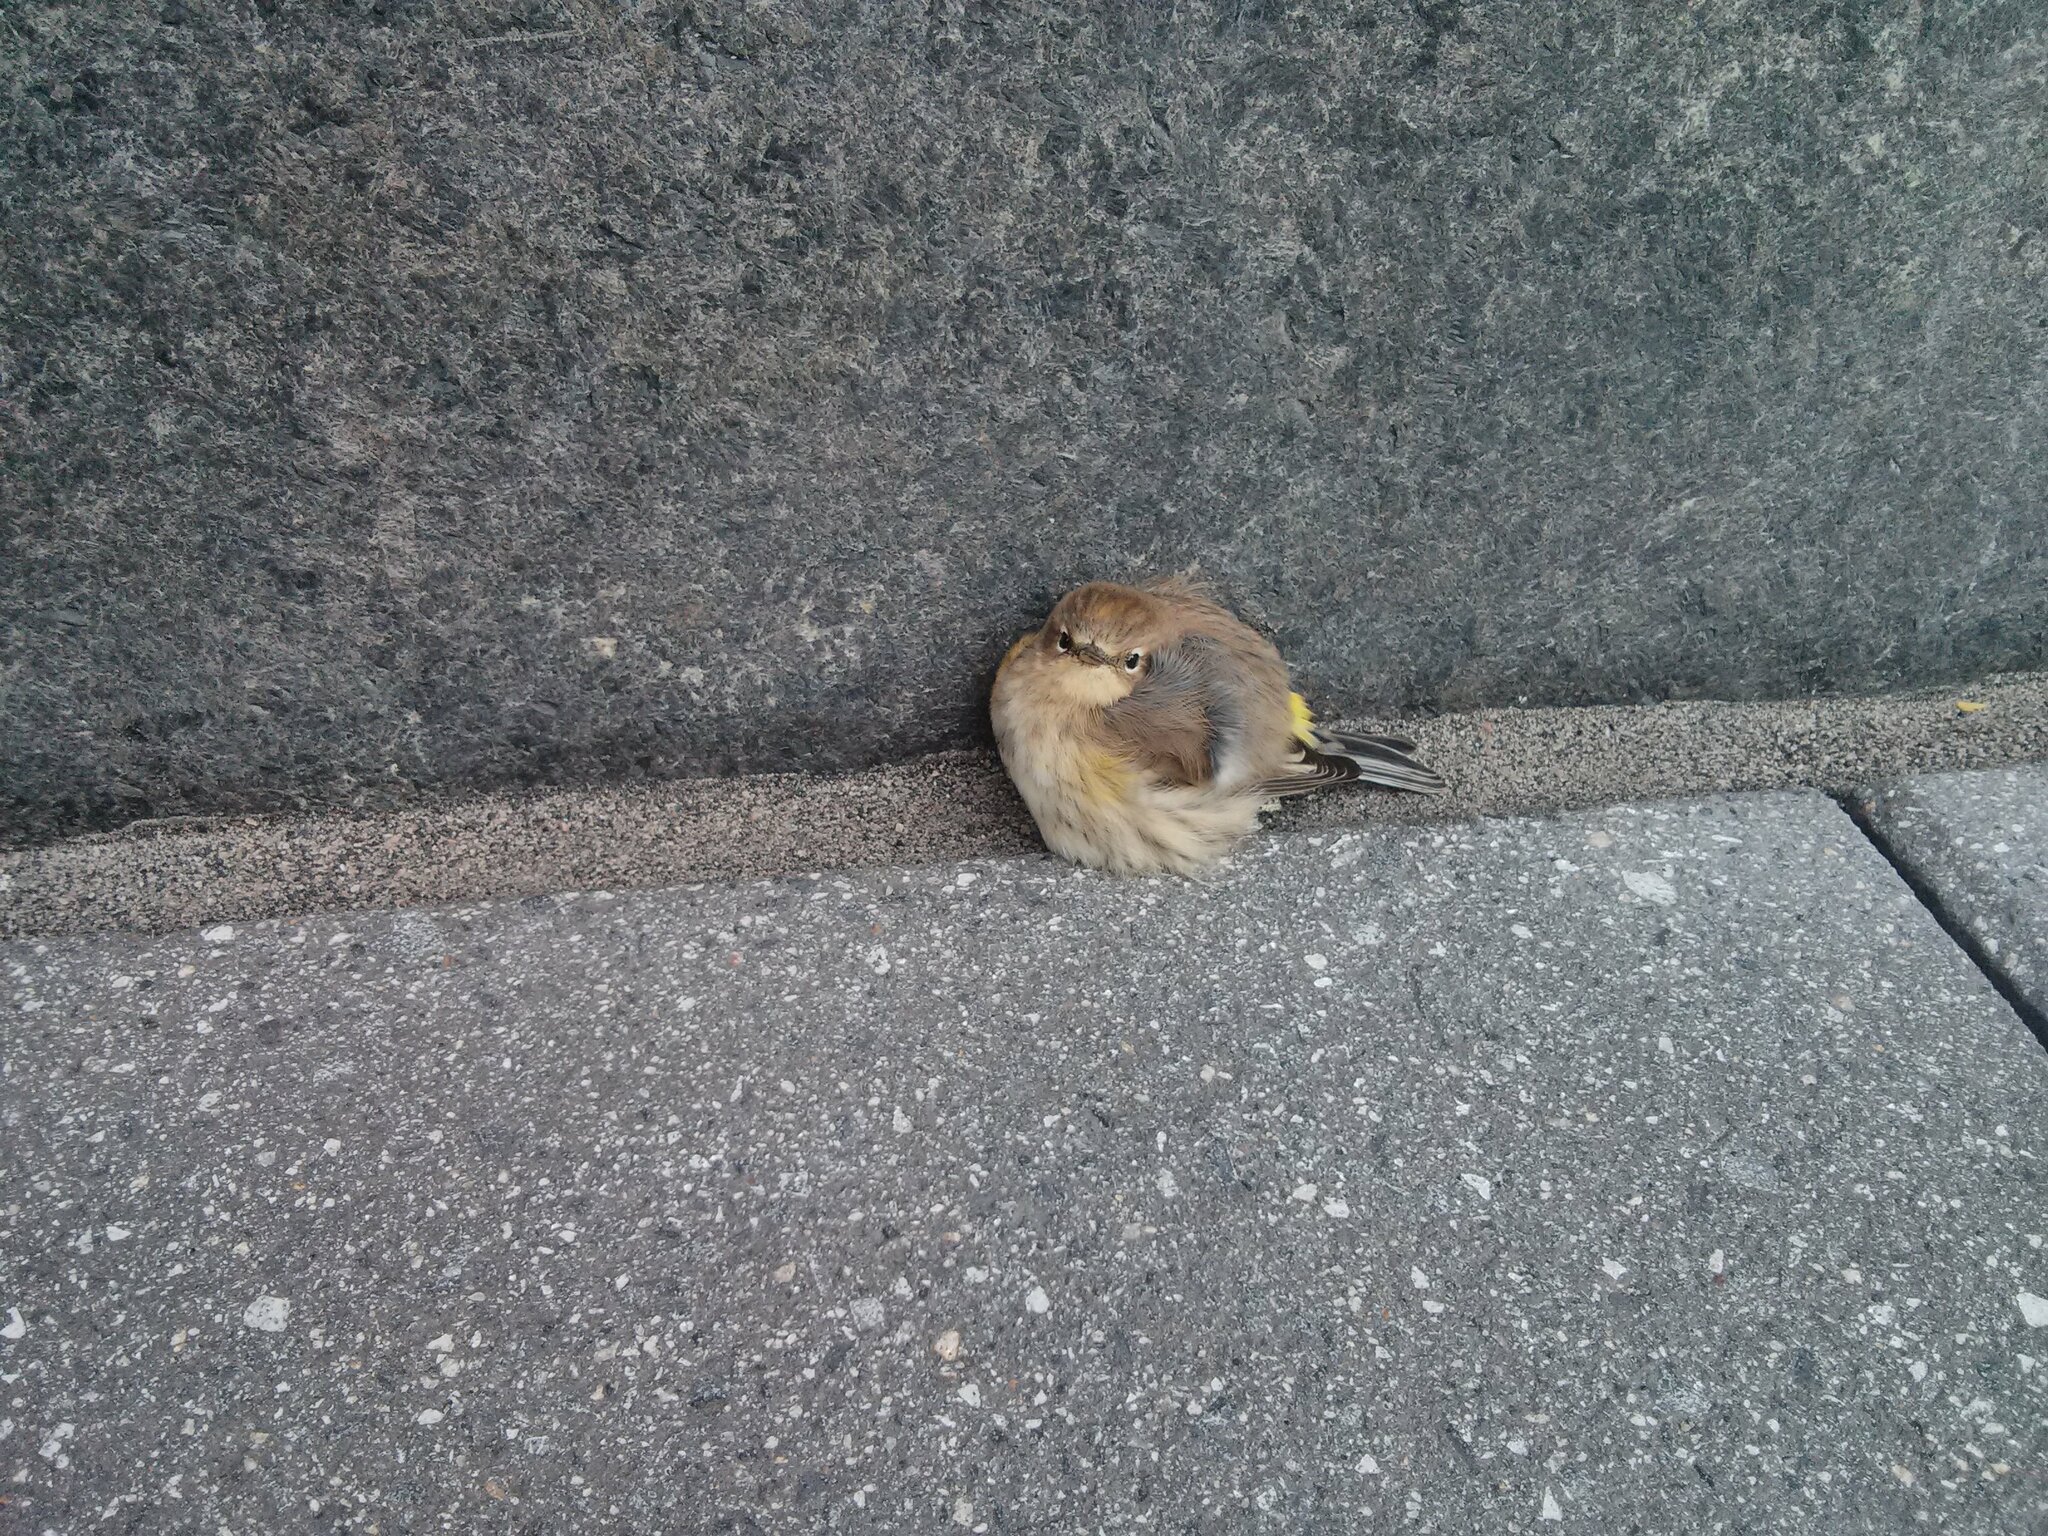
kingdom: Animalia
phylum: Chordata
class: Aves
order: Passeriformes
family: Parulidae
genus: Setophaga
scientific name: Setophaga coronata
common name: Myrtle warbler
